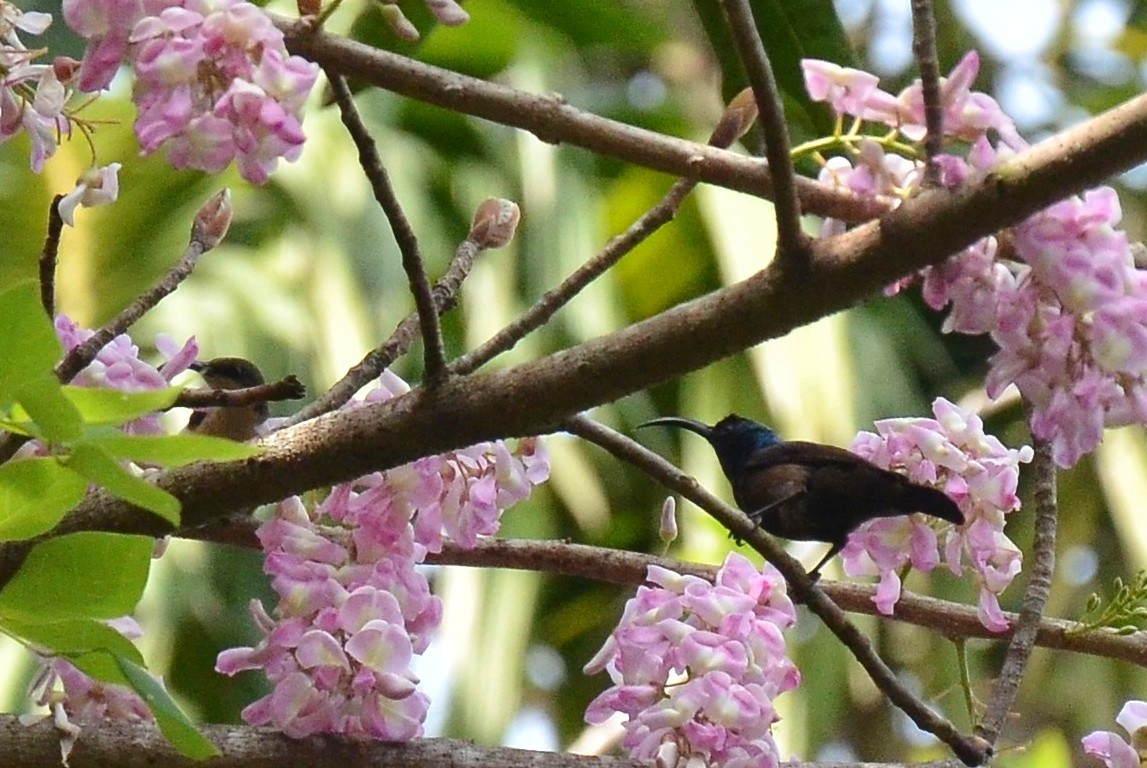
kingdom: Animalia
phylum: Chordata
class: Aves
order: Passeriformes
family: Nectariniidae
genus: Cinnyris
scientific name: Cinnyris lotenius
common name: Loten's sunbird
